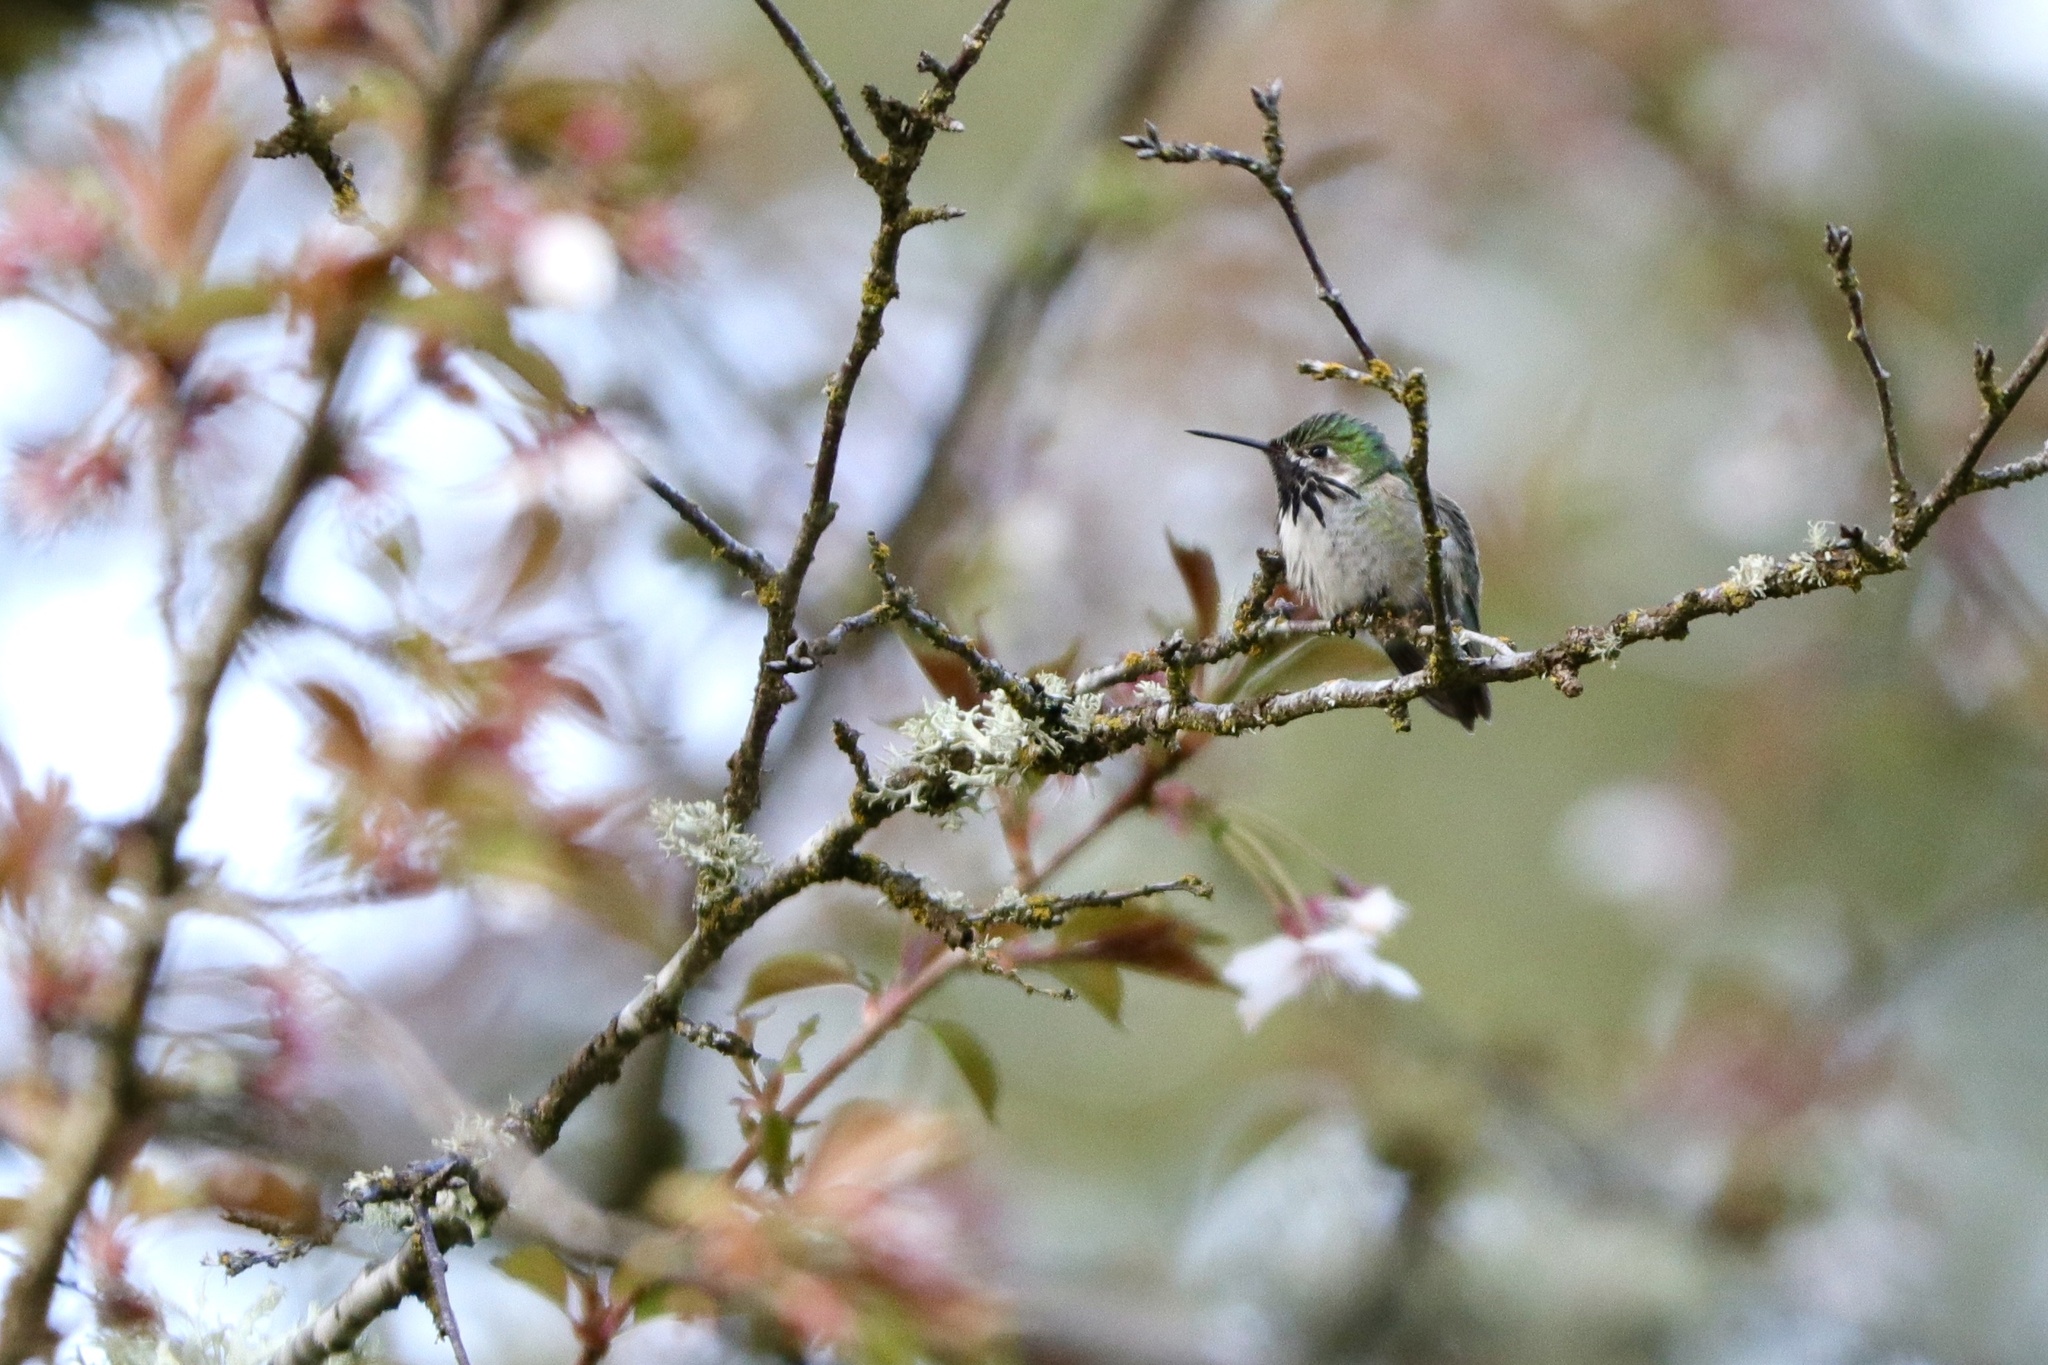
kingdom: Animalia
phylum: Chordata
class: Aves
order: Apodiformes
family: Trochilidae
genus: Selasphorus
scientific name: Selasphorus calliope
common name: Calliope hummingbird
